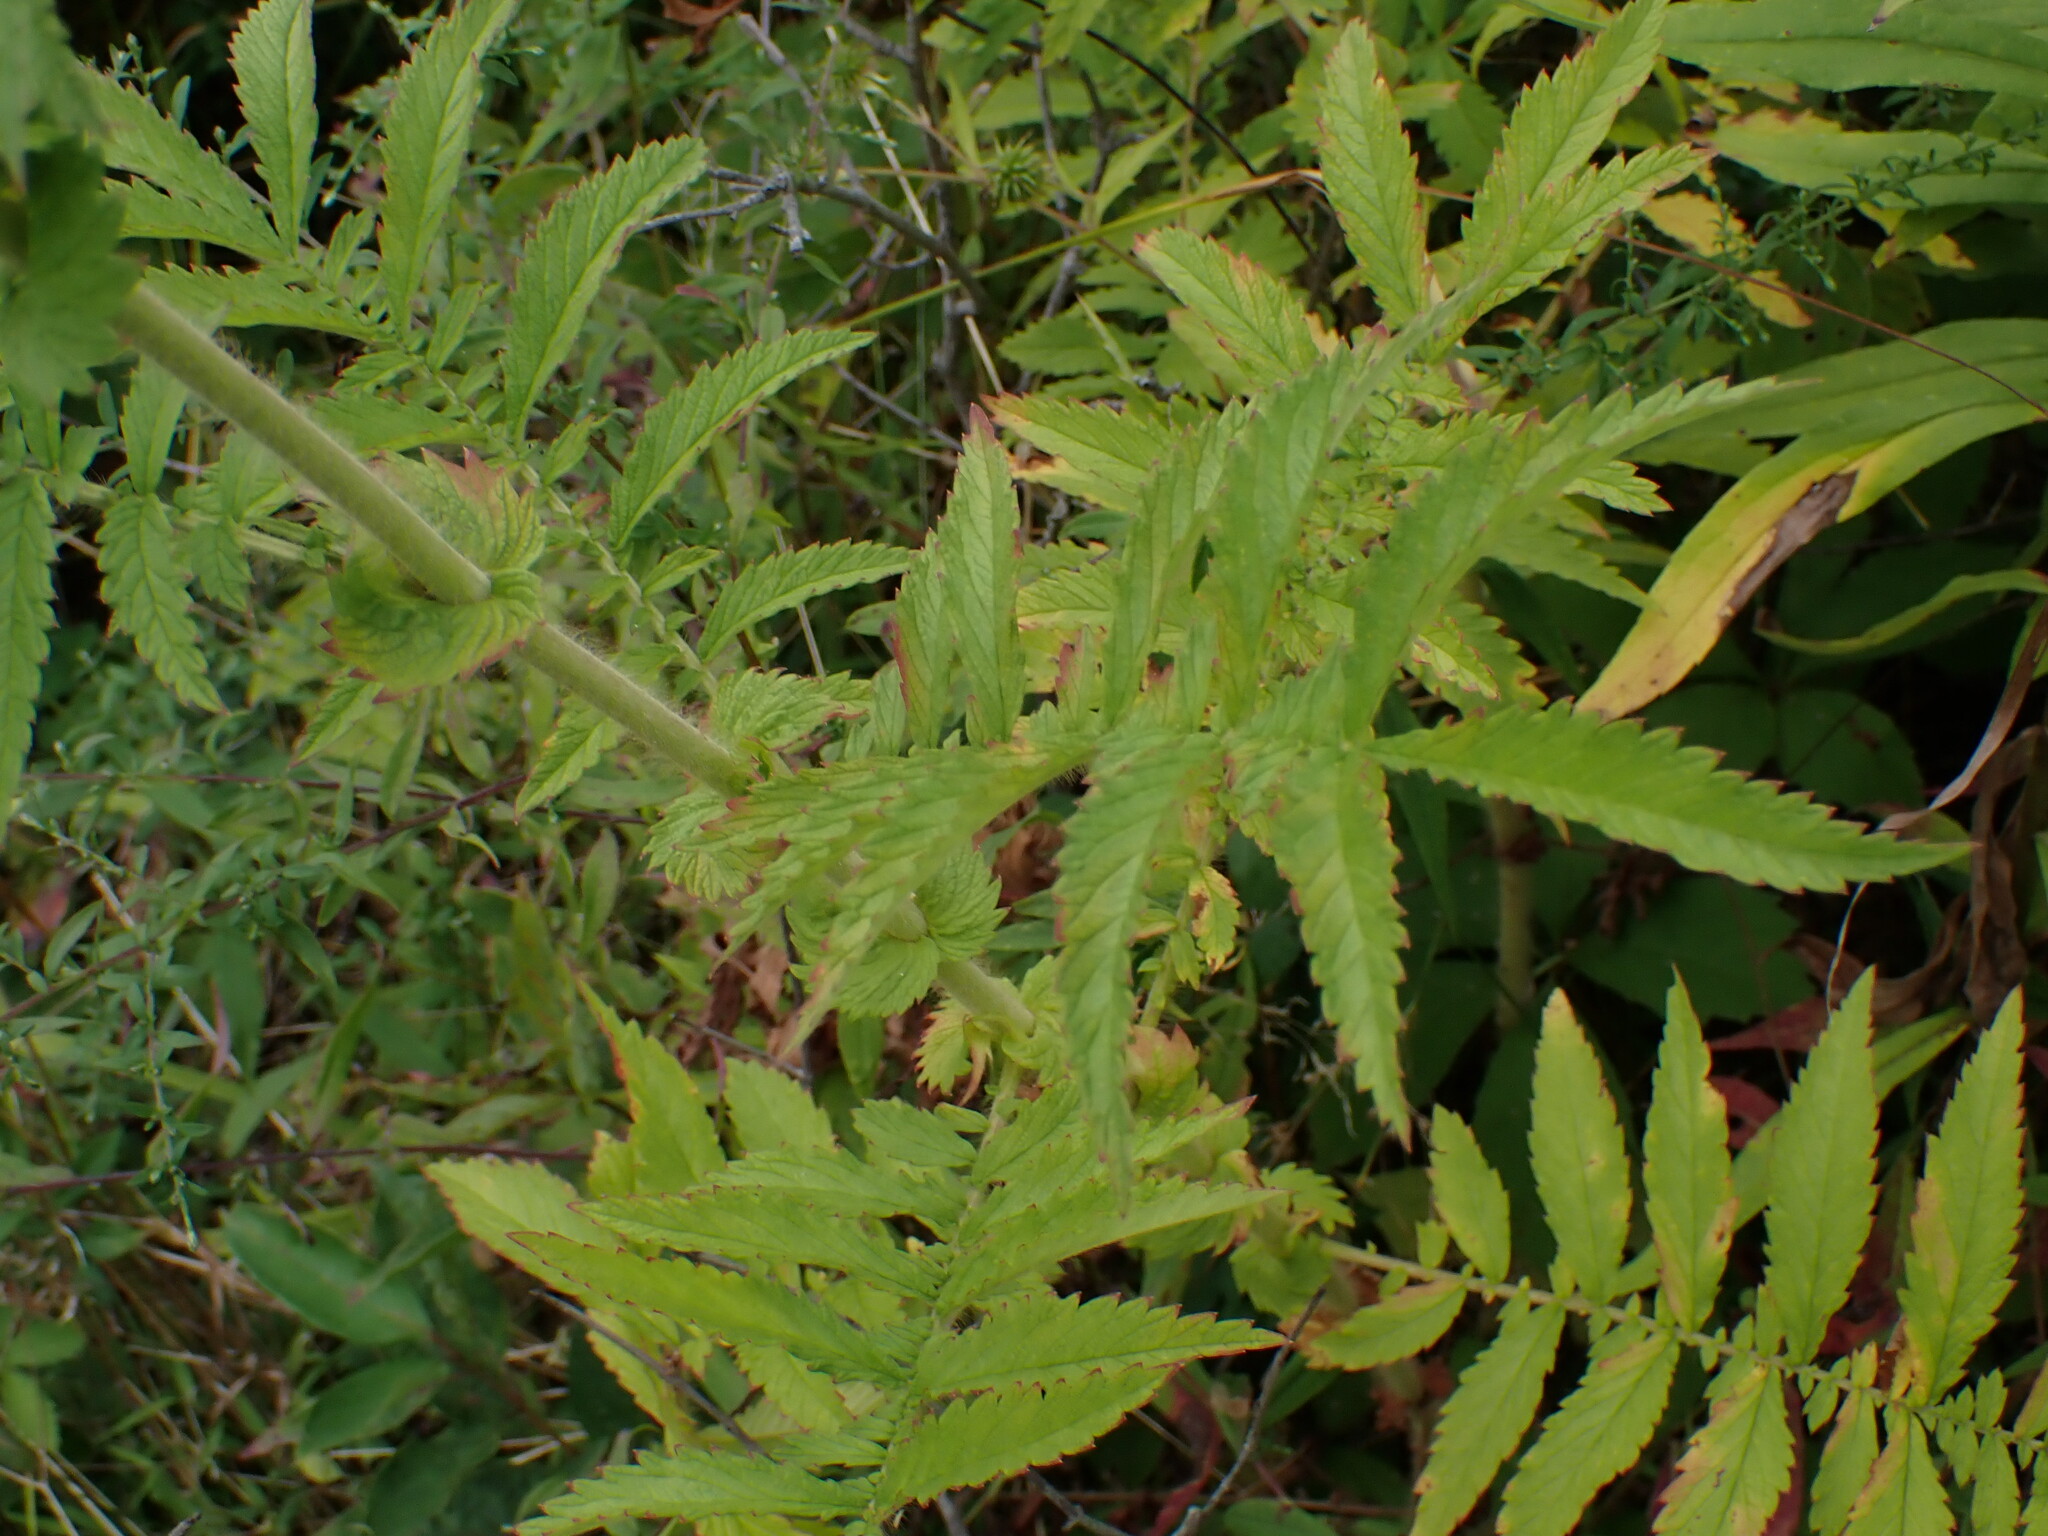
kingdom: Plantae
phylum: Tracheophyta
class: Magnoliopsida
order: Rosales
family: Rosaceae
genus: Agrimonia
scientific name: Agrimonia parviflora
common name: Harvest-lice
